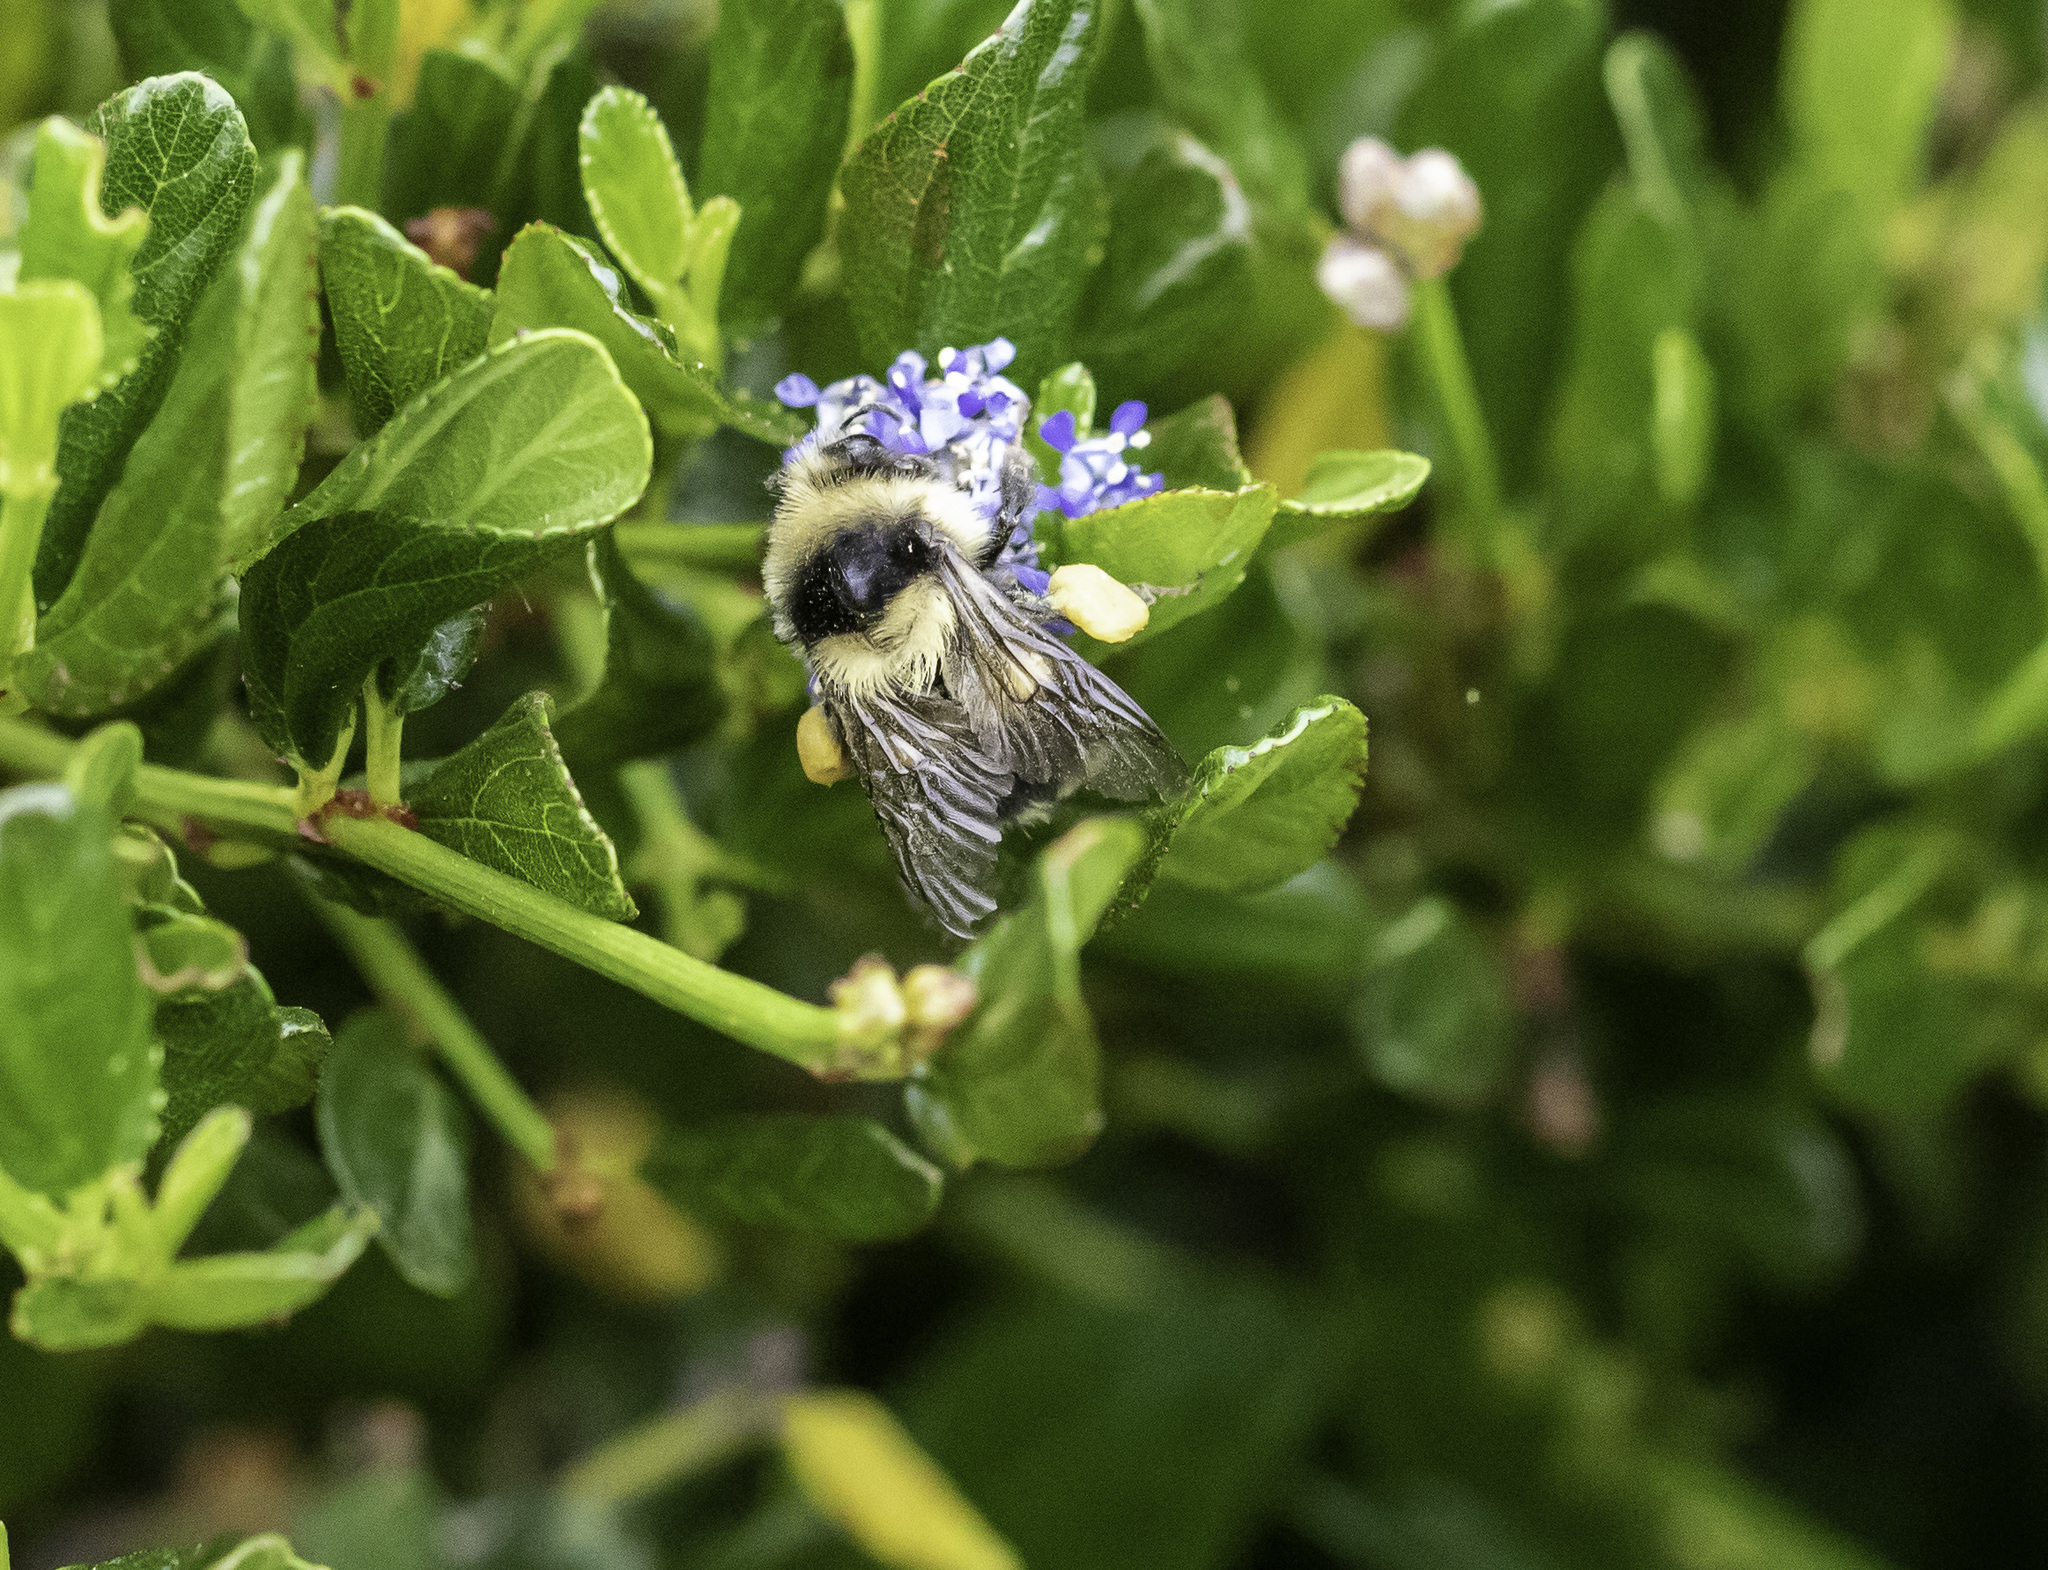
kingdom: Animalia
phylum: Arthropoda
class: Insecta
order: Hymenoptera
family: Apidae
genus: Bombus
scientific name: Bombus melanopygus
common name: Black tail bumble bee
